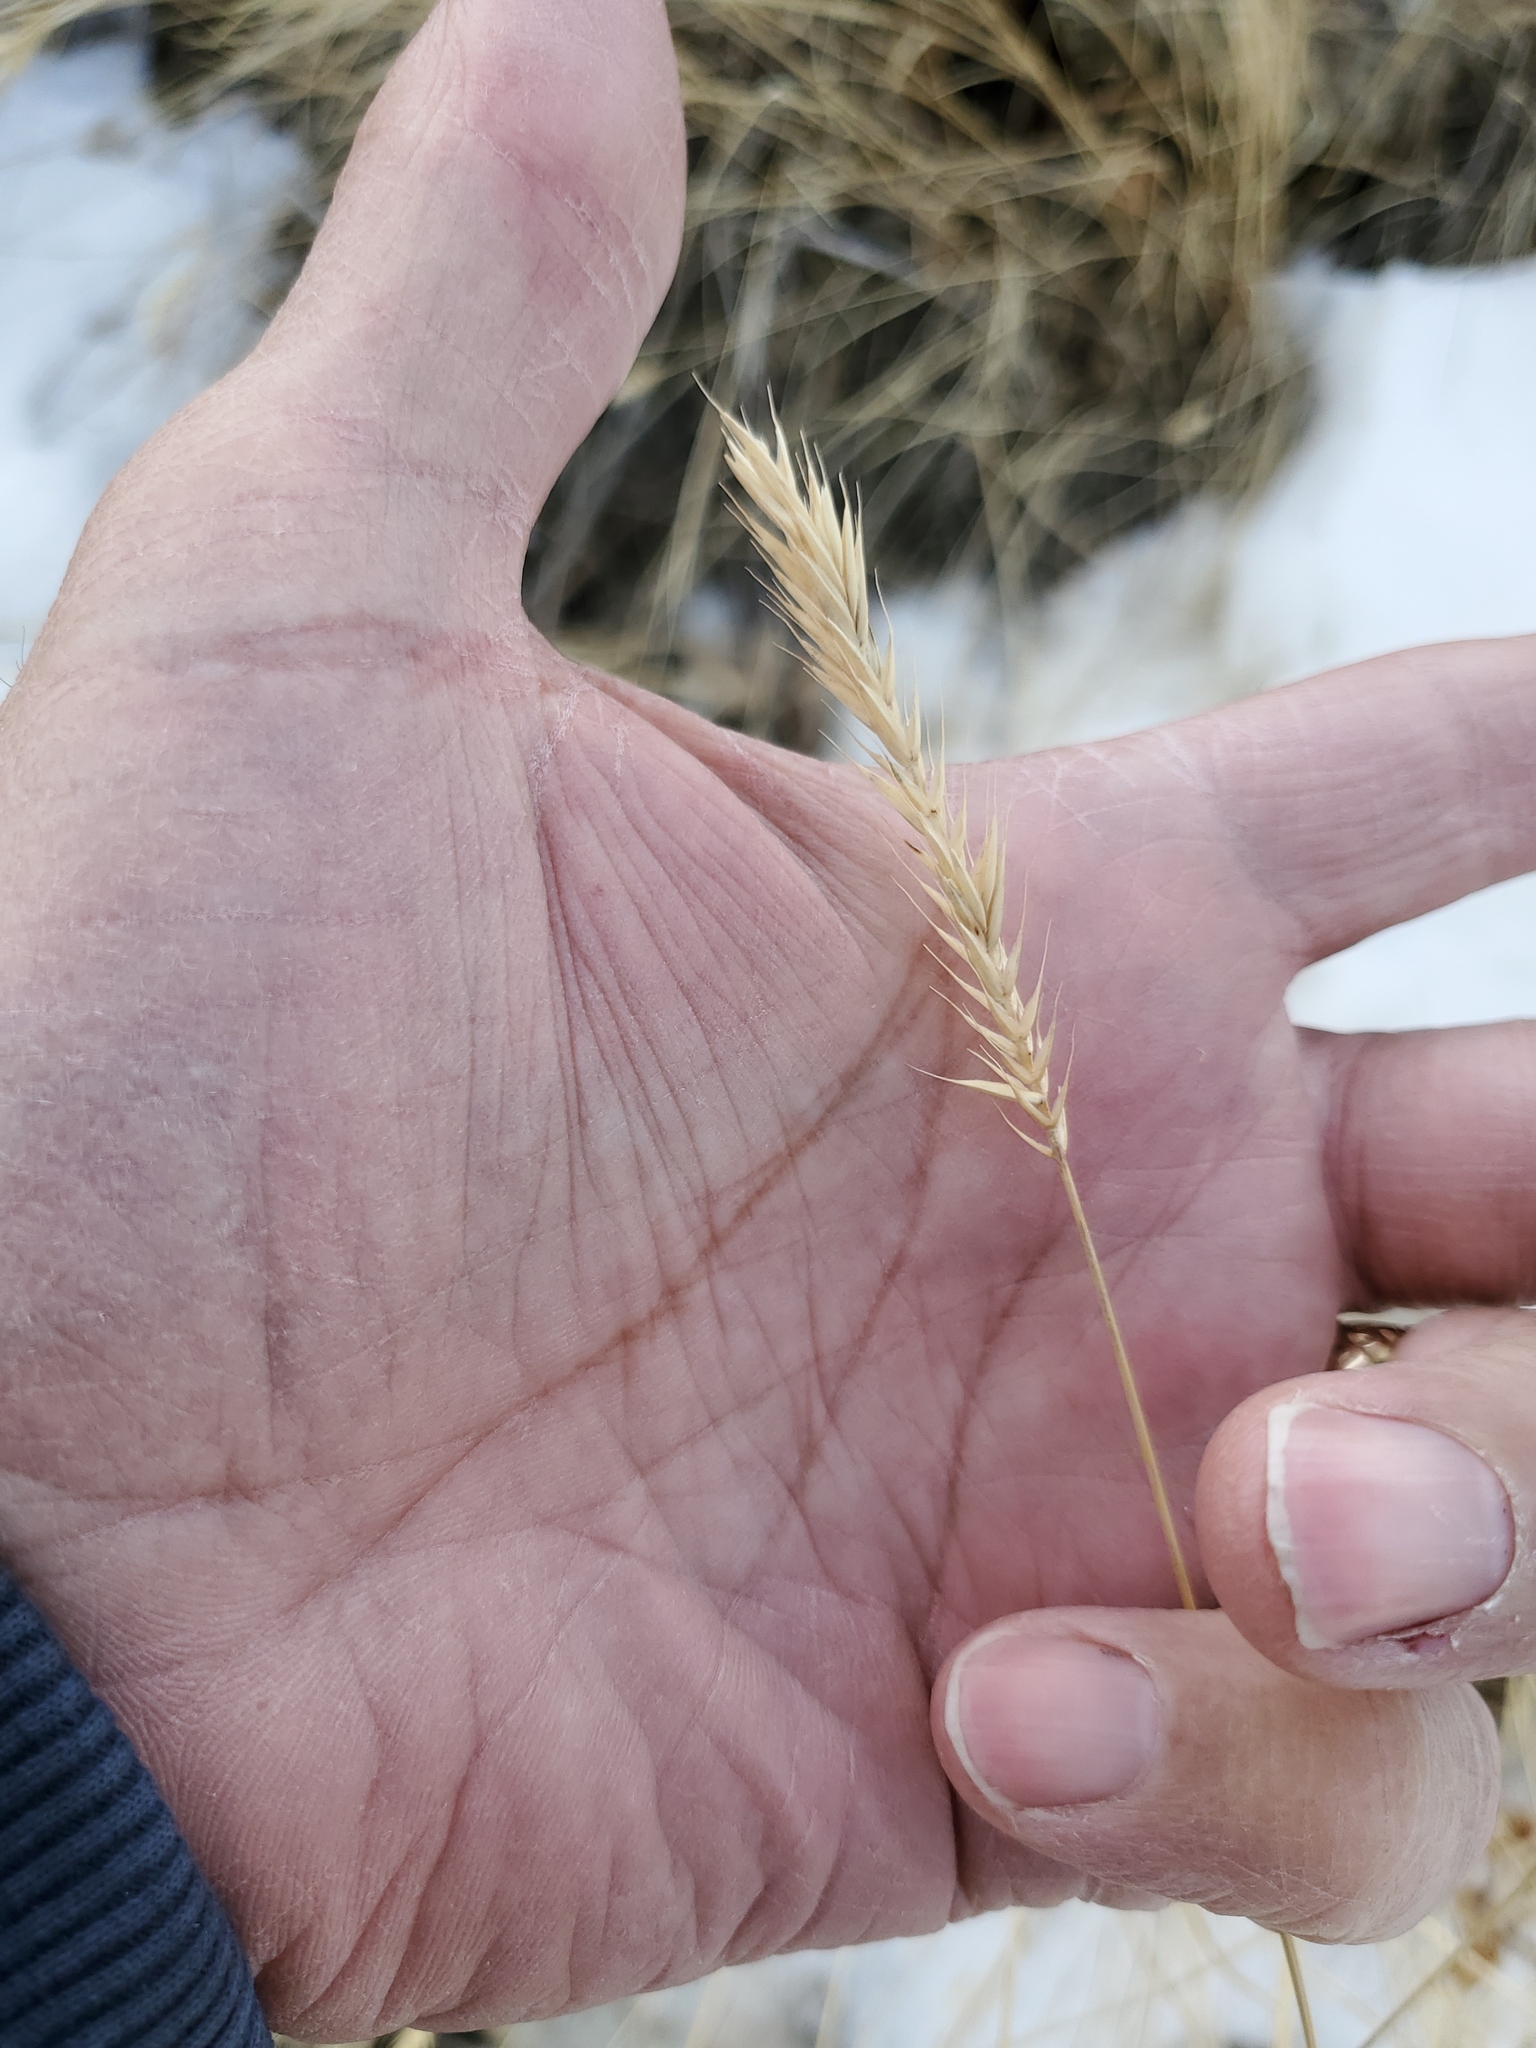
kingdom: Plantae
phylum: Tracheophyta
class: Liliopsida
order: Poales
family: Poaceae
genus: Agropyron
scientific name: Agropyron cristatum
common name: Crested wheatgrass
